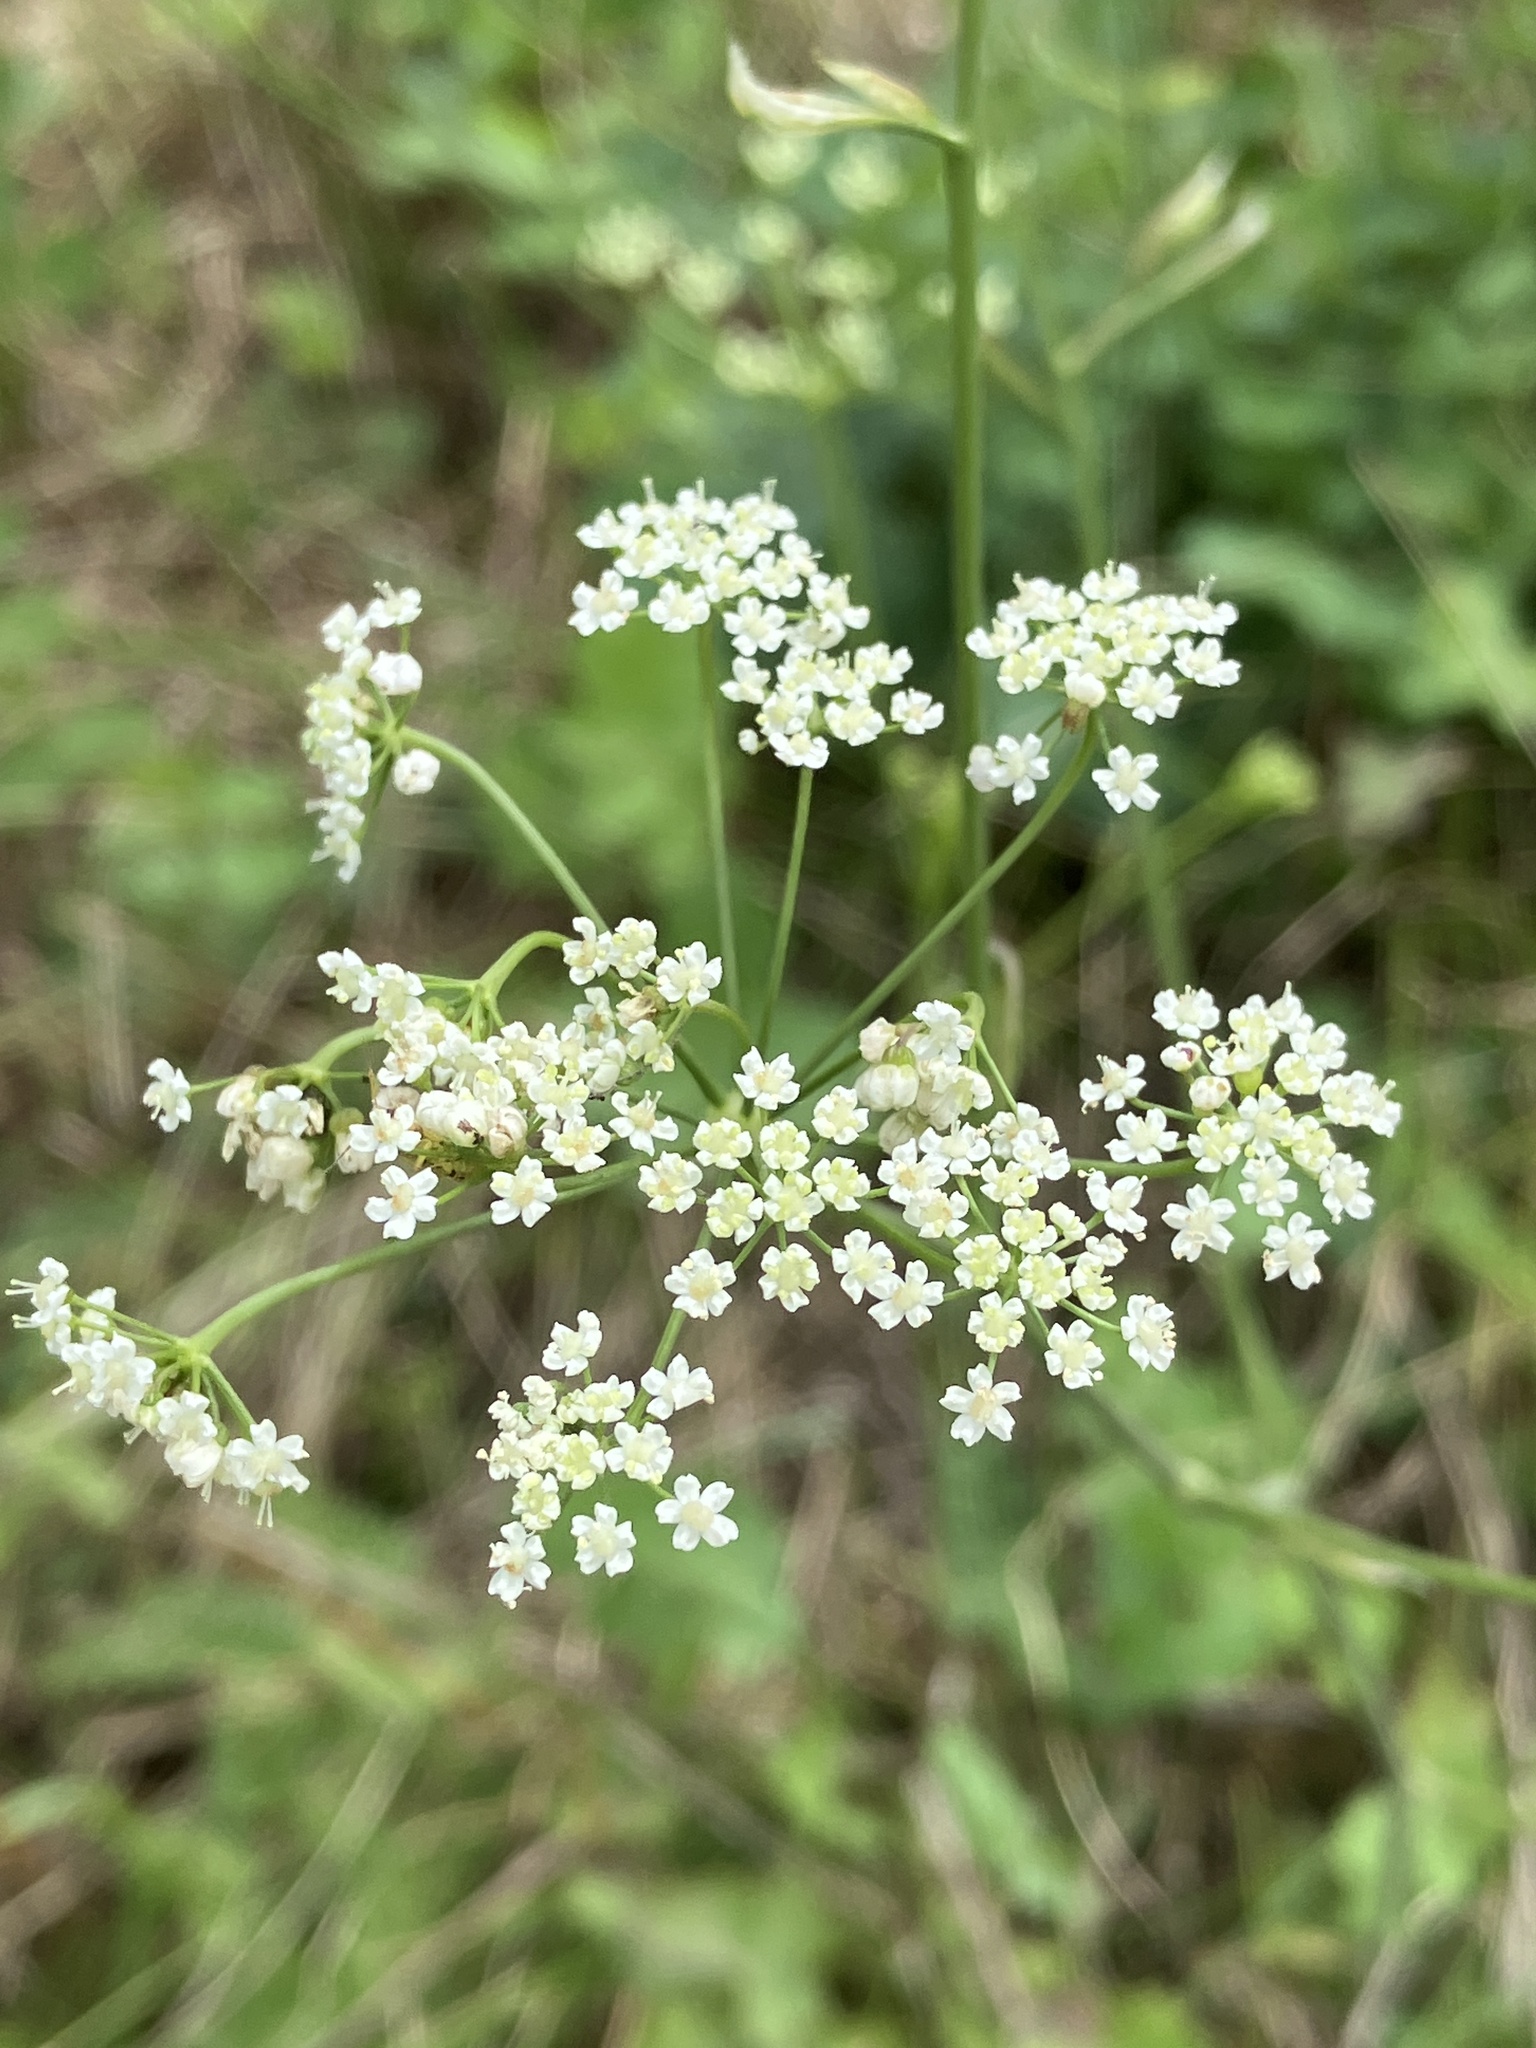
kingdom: Plantae
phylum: Tracheophyta
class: Magnoliopsida
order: Apiales
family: Apiaceae
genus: Pimpinella
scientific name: Pimpinella saxifraga
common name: Burnet-saxifrage
